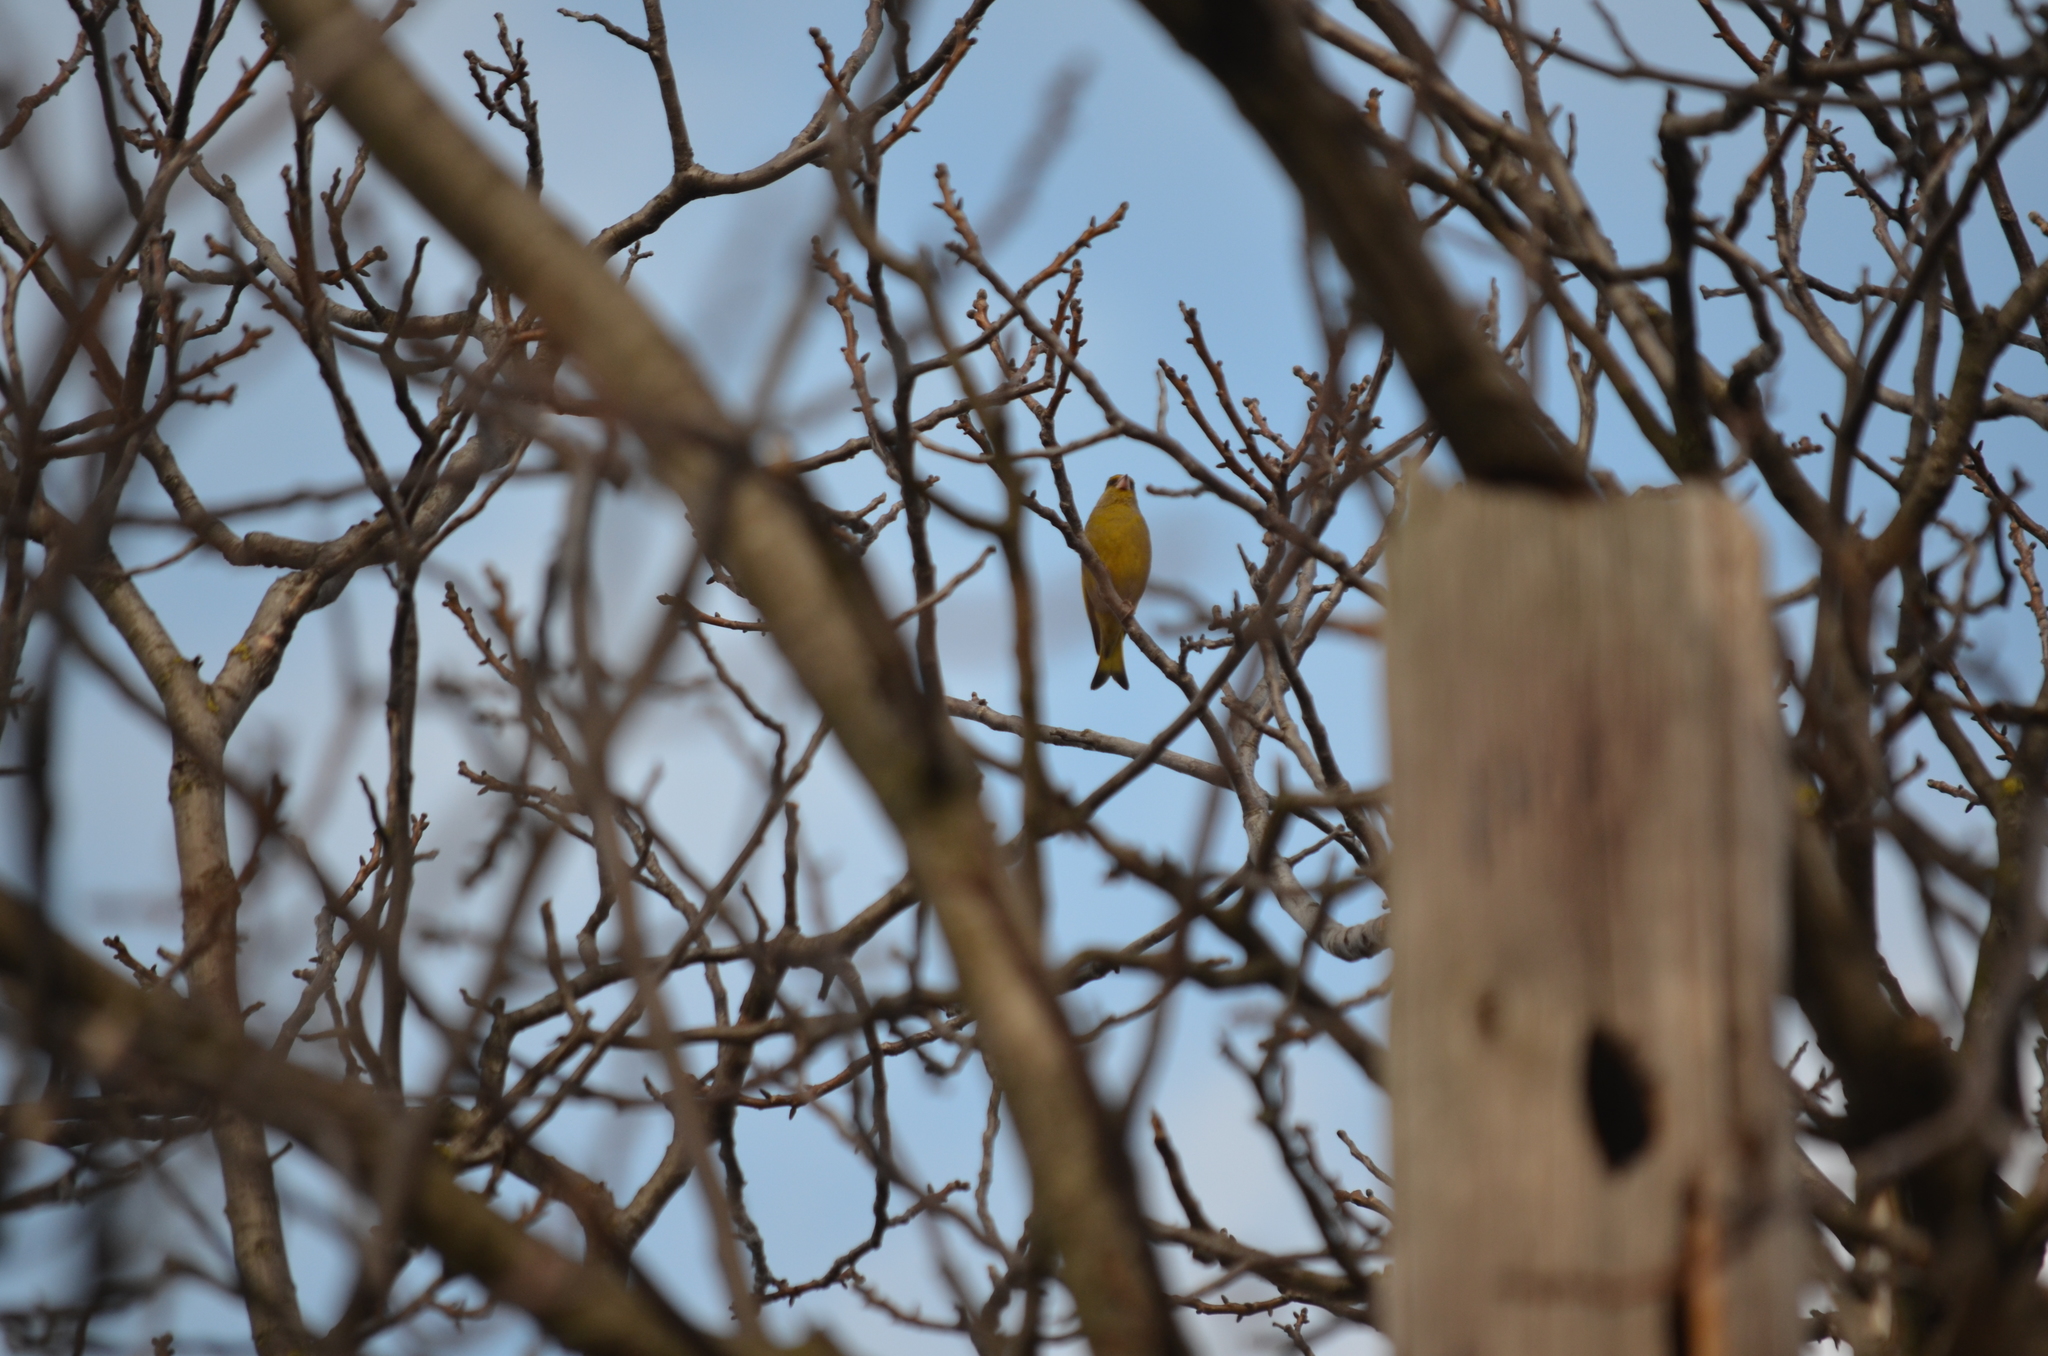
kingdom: Plantae
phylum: Tracheophyta
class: Liliopsida
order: Poales
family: Poaceae
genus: Chloris
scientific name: Chloris chloris
